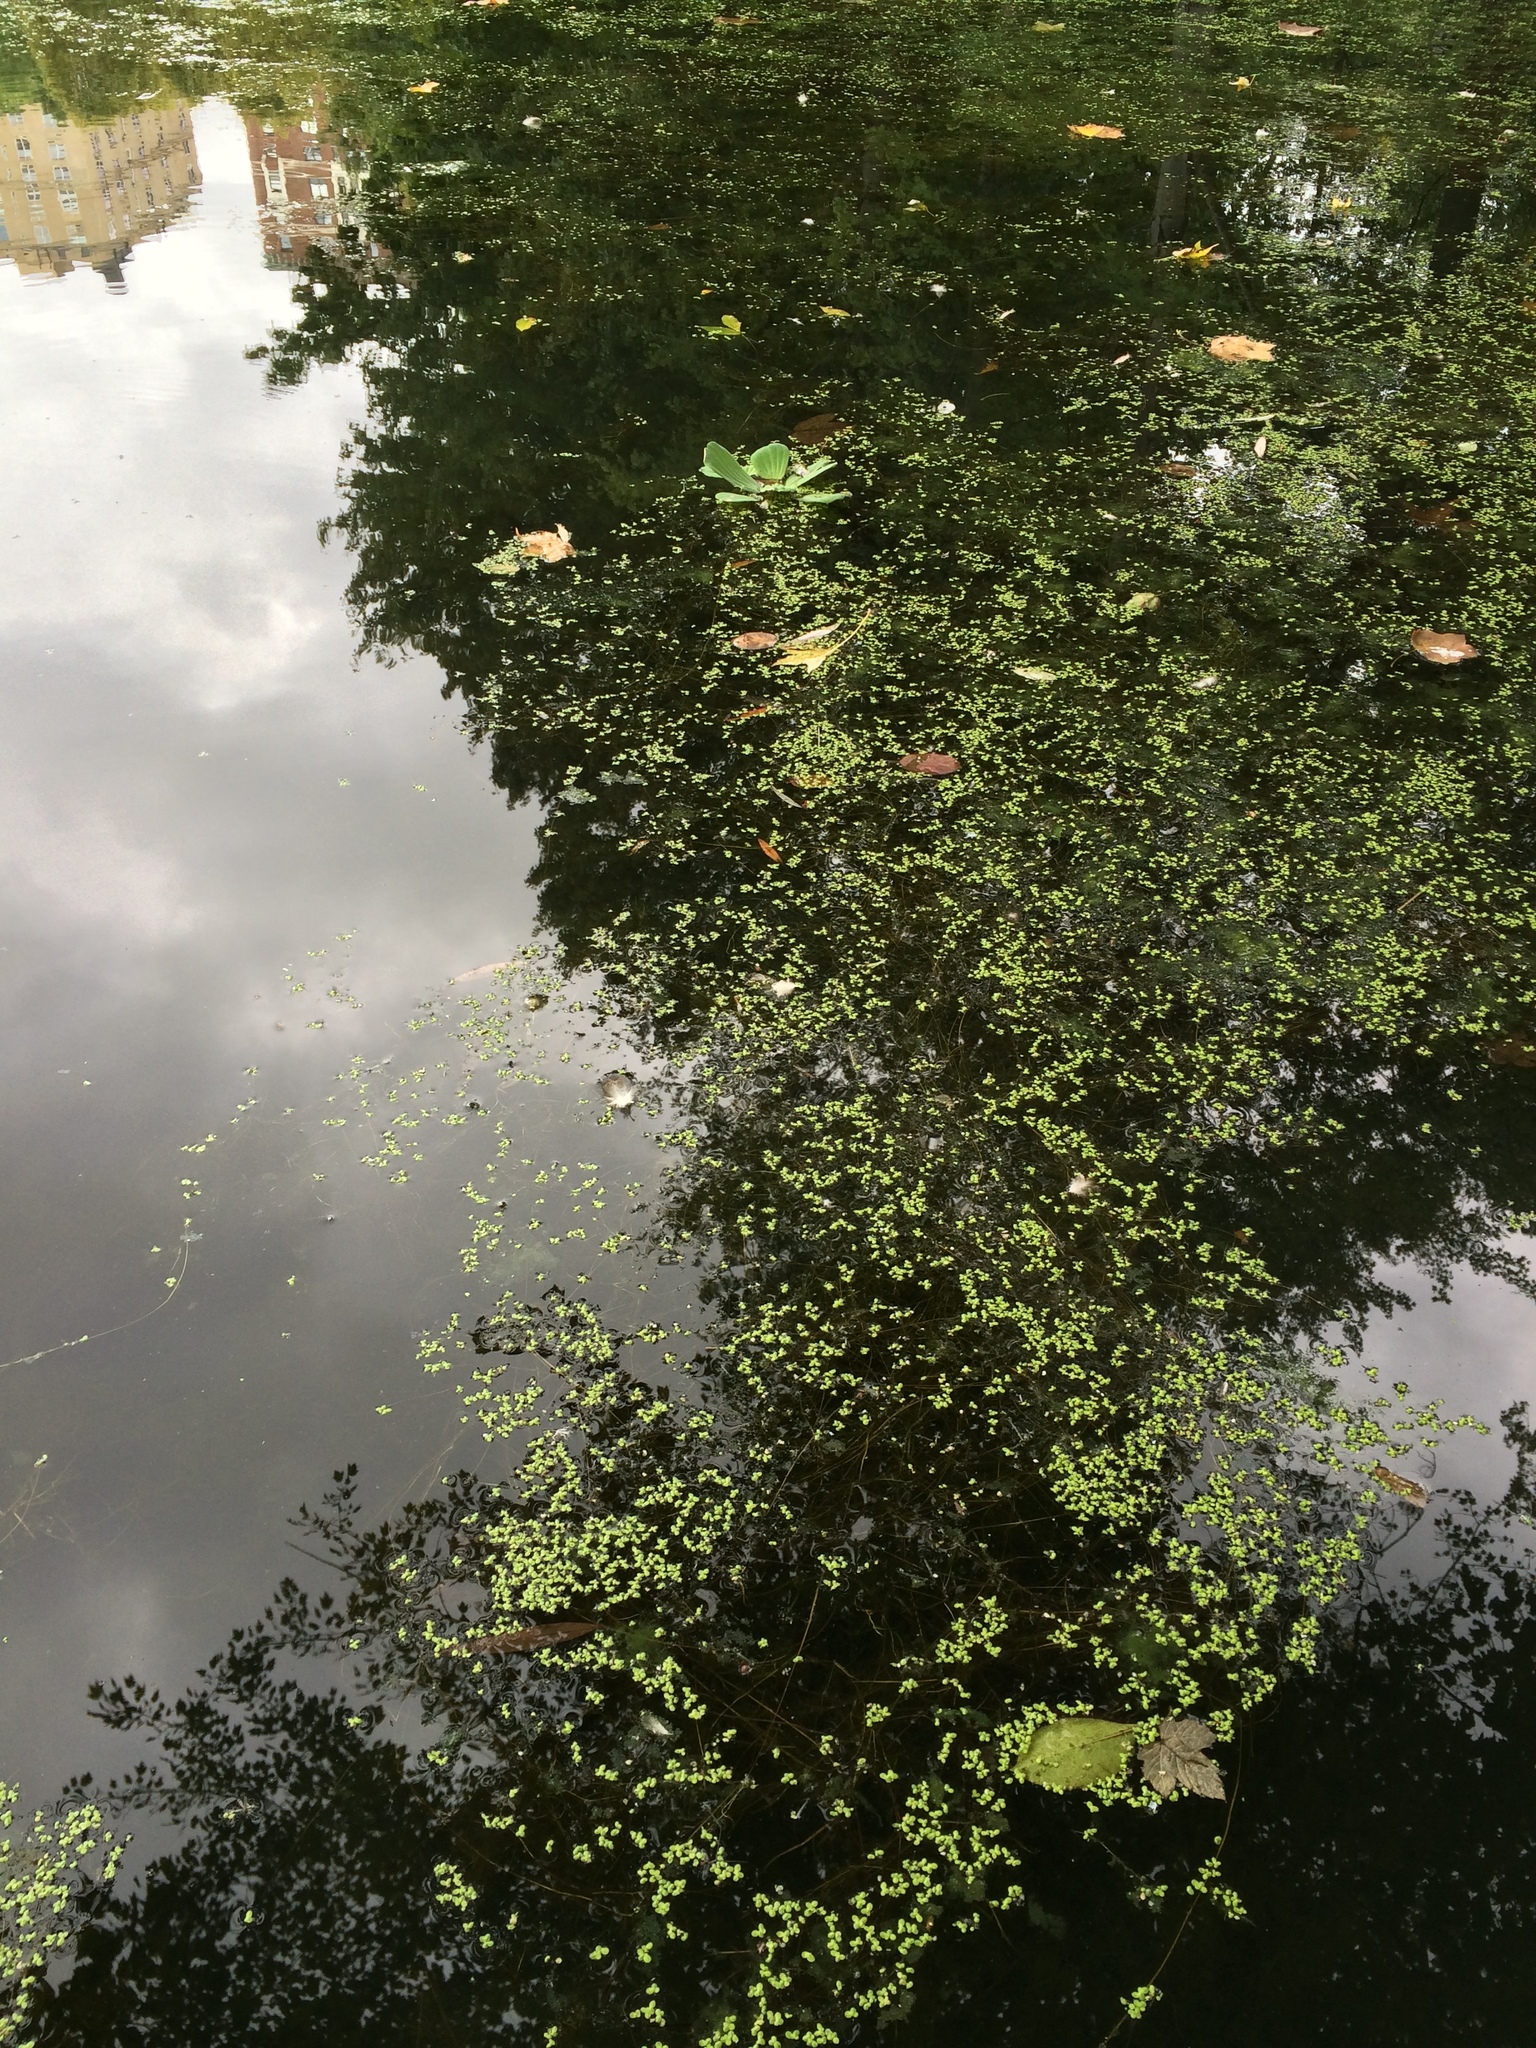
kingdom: Plantae
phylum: Tracheophyta
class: Liliopsida
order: Alismatales
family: Araceae
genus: Spirodela
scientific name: Spirodela polyrhiza
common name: Great duckweed
